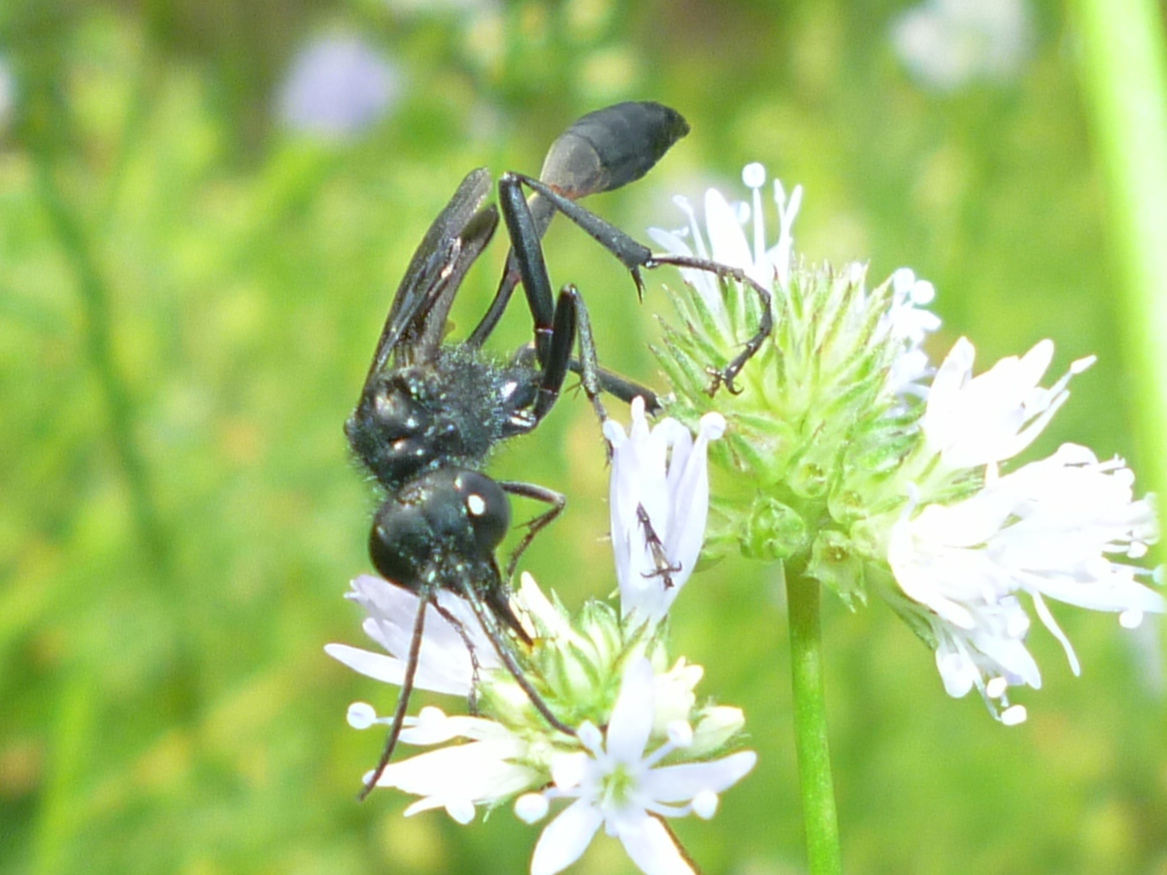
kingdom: Animalia
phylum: Arthropoda
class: Insecta
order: Hymenoptera
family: Sphecidae
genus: Ammophila
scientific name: Ammophila nigricans
